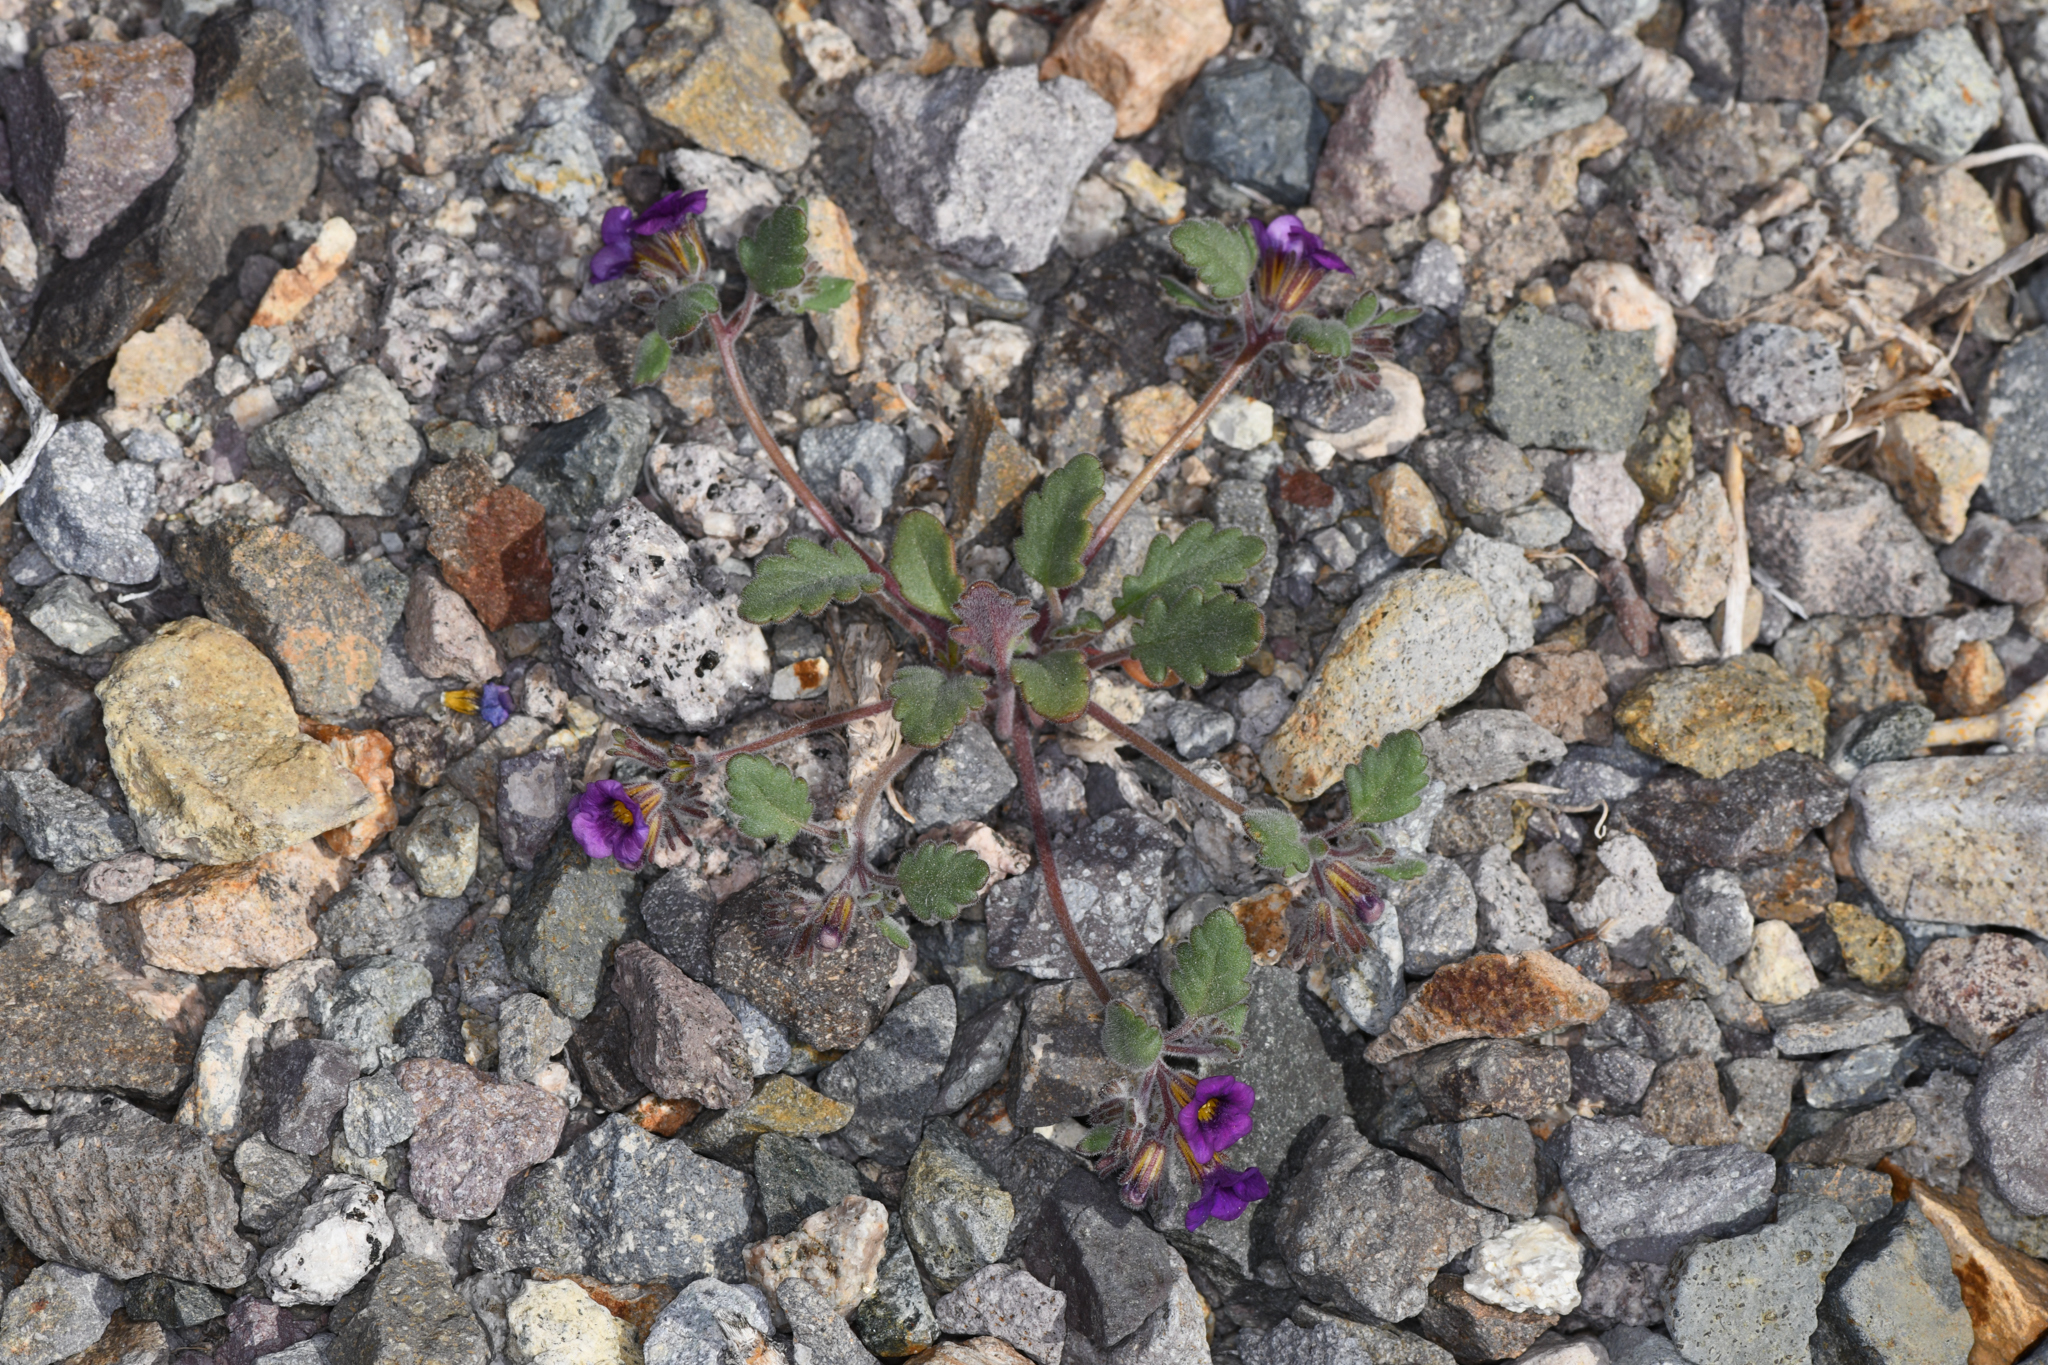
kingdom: Plantae
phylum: Tracheophyta
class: Magnoliopsida
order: Boraginales
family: Hydrophyllaceae
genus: Phacelia
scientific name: Phacelia gymnoclada
